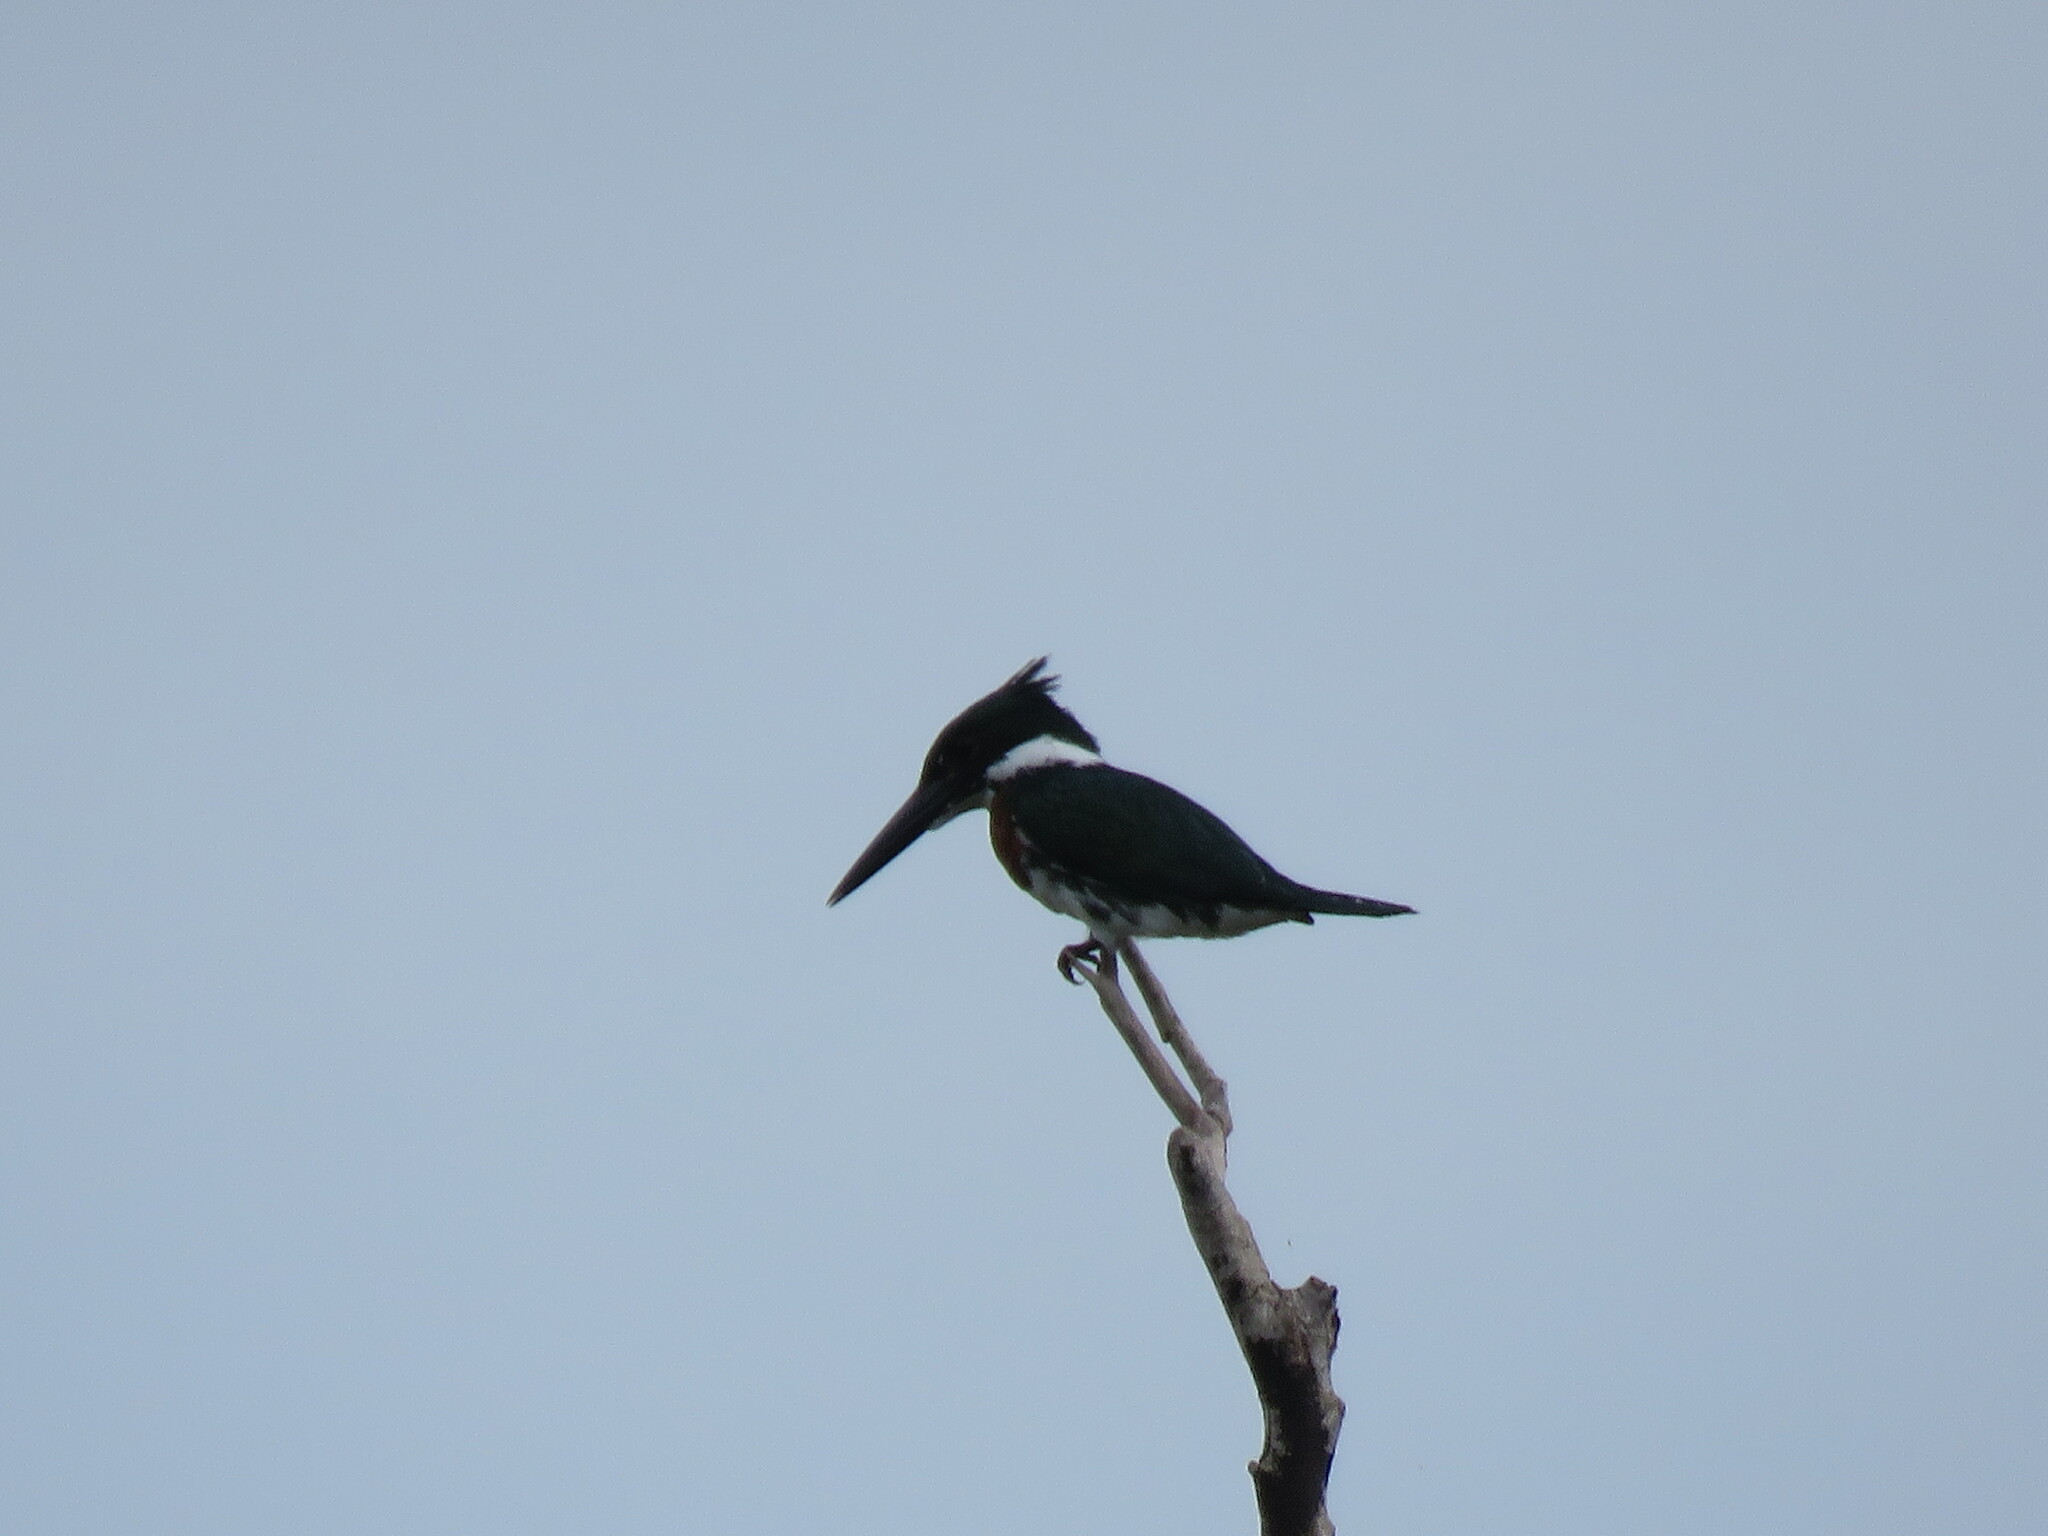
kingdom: Animalia
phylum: Chordata
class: Aves
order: Coraciiformes
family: Alcedinidae
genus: Chloroceryle
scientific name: Chloroceryle amazona
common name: Amazon kingfisher
